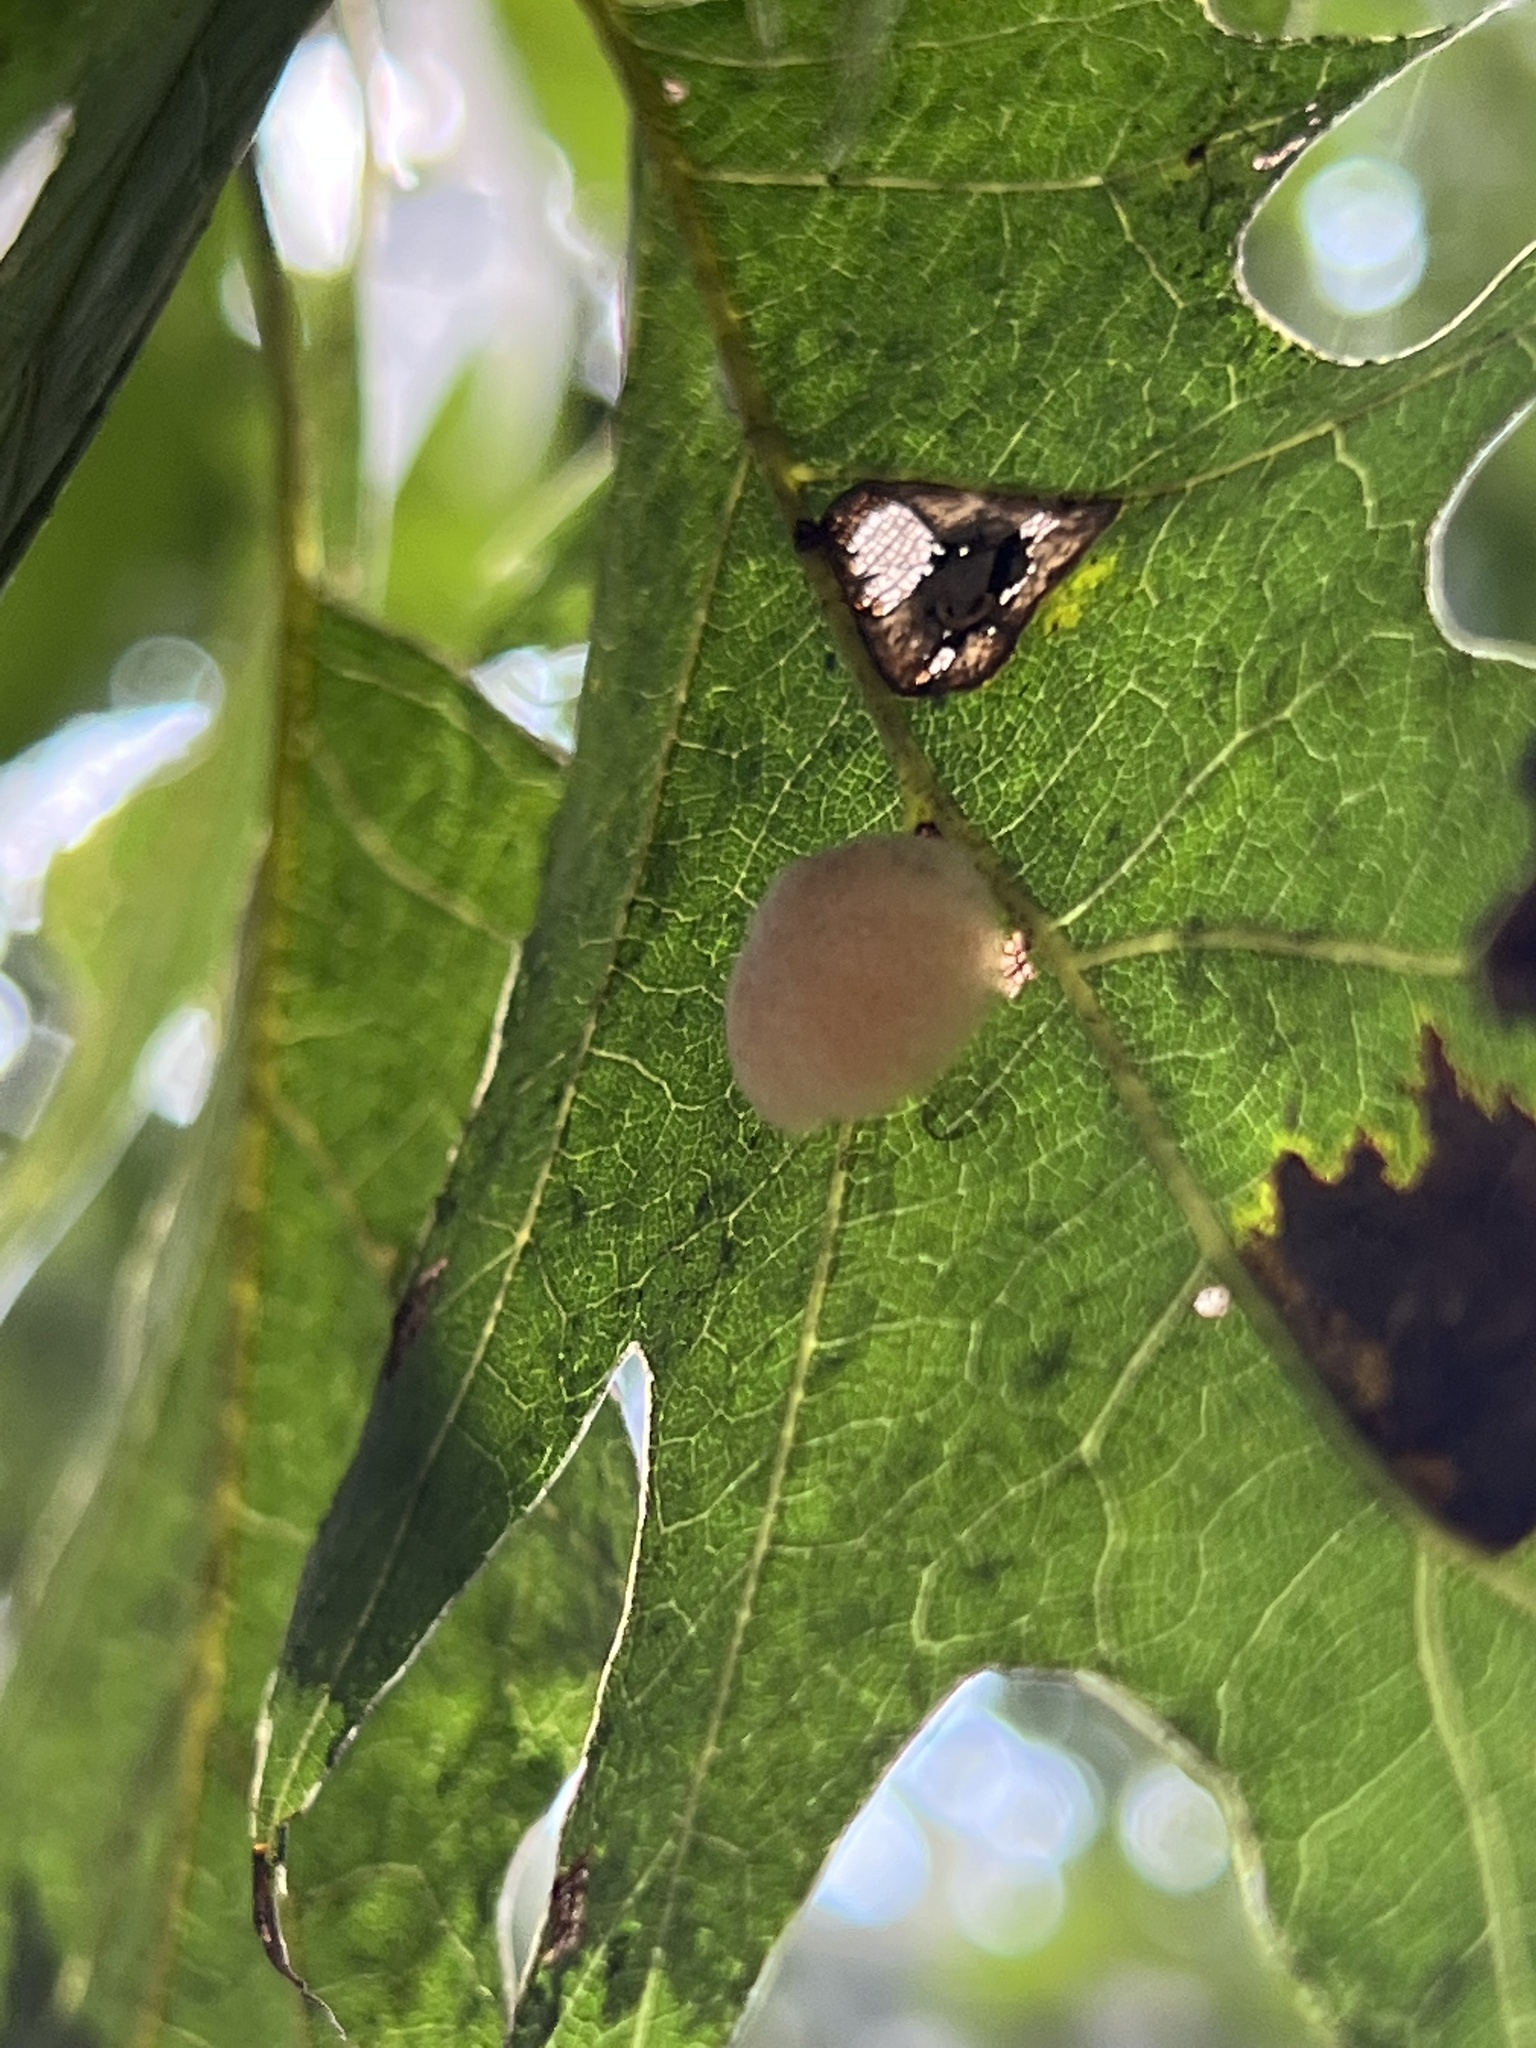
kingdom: Animalia
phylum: Arthropoda
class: Insecta
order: Hymenoptera
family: Cynipidae
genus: Callirhytis
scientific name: Callirhytis
